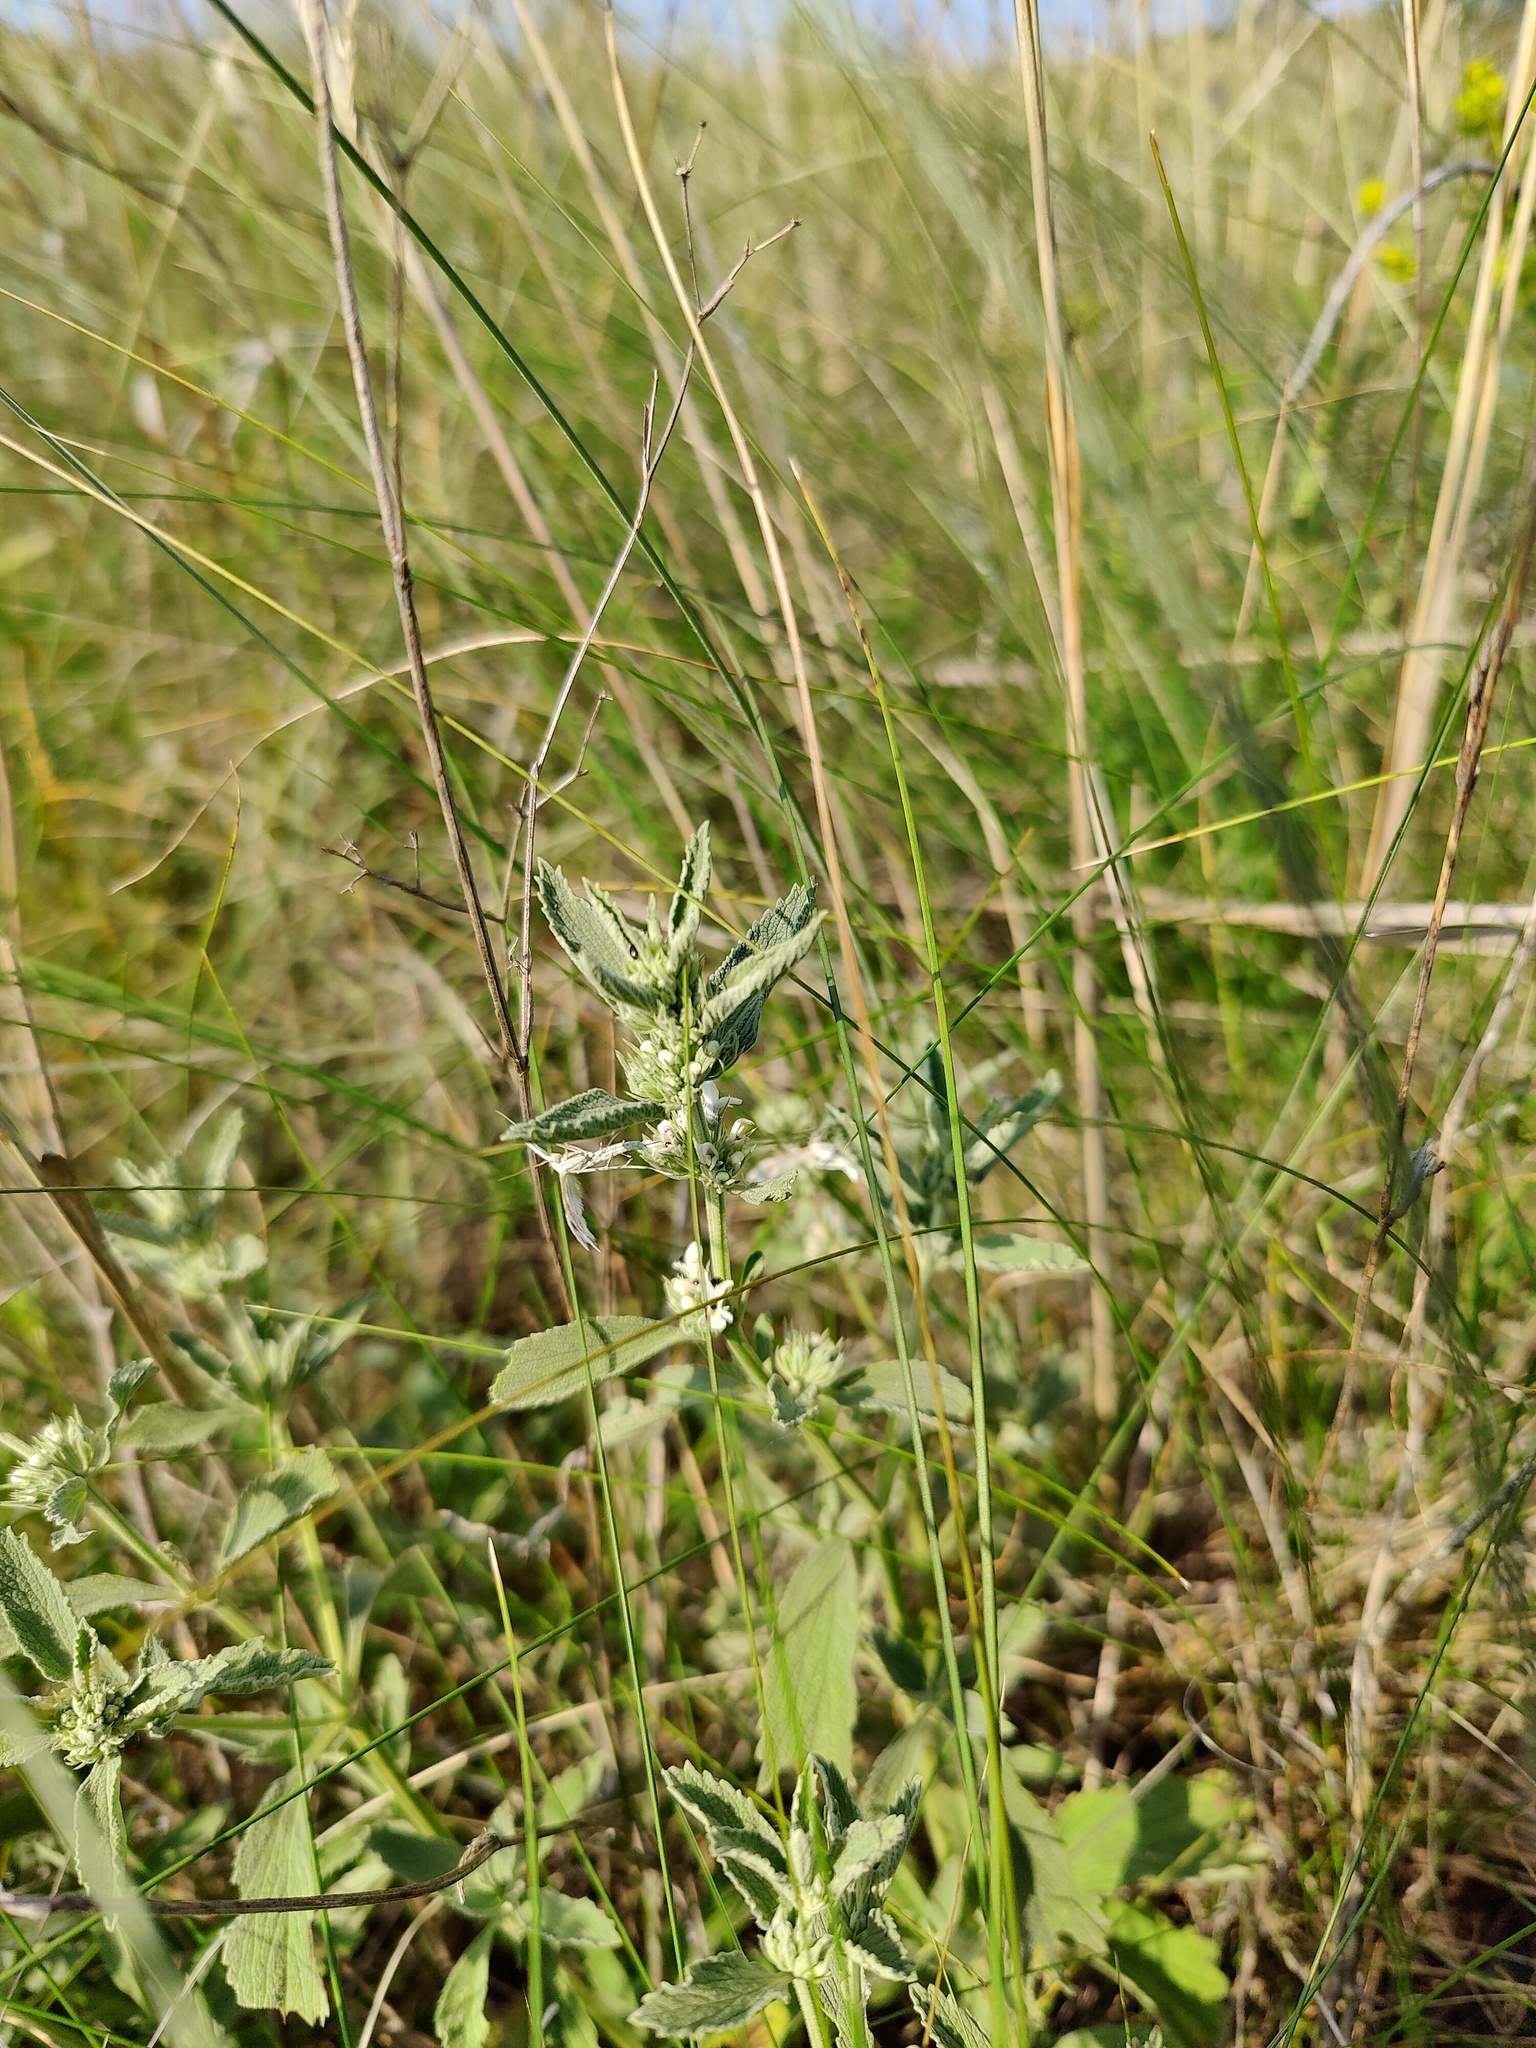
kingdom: Plantae
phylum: Tracheophyta
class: Magnoliopsida
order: Lamiales
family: Lamiaceae
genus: Marrubium
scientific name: Marrubium peregrinum
